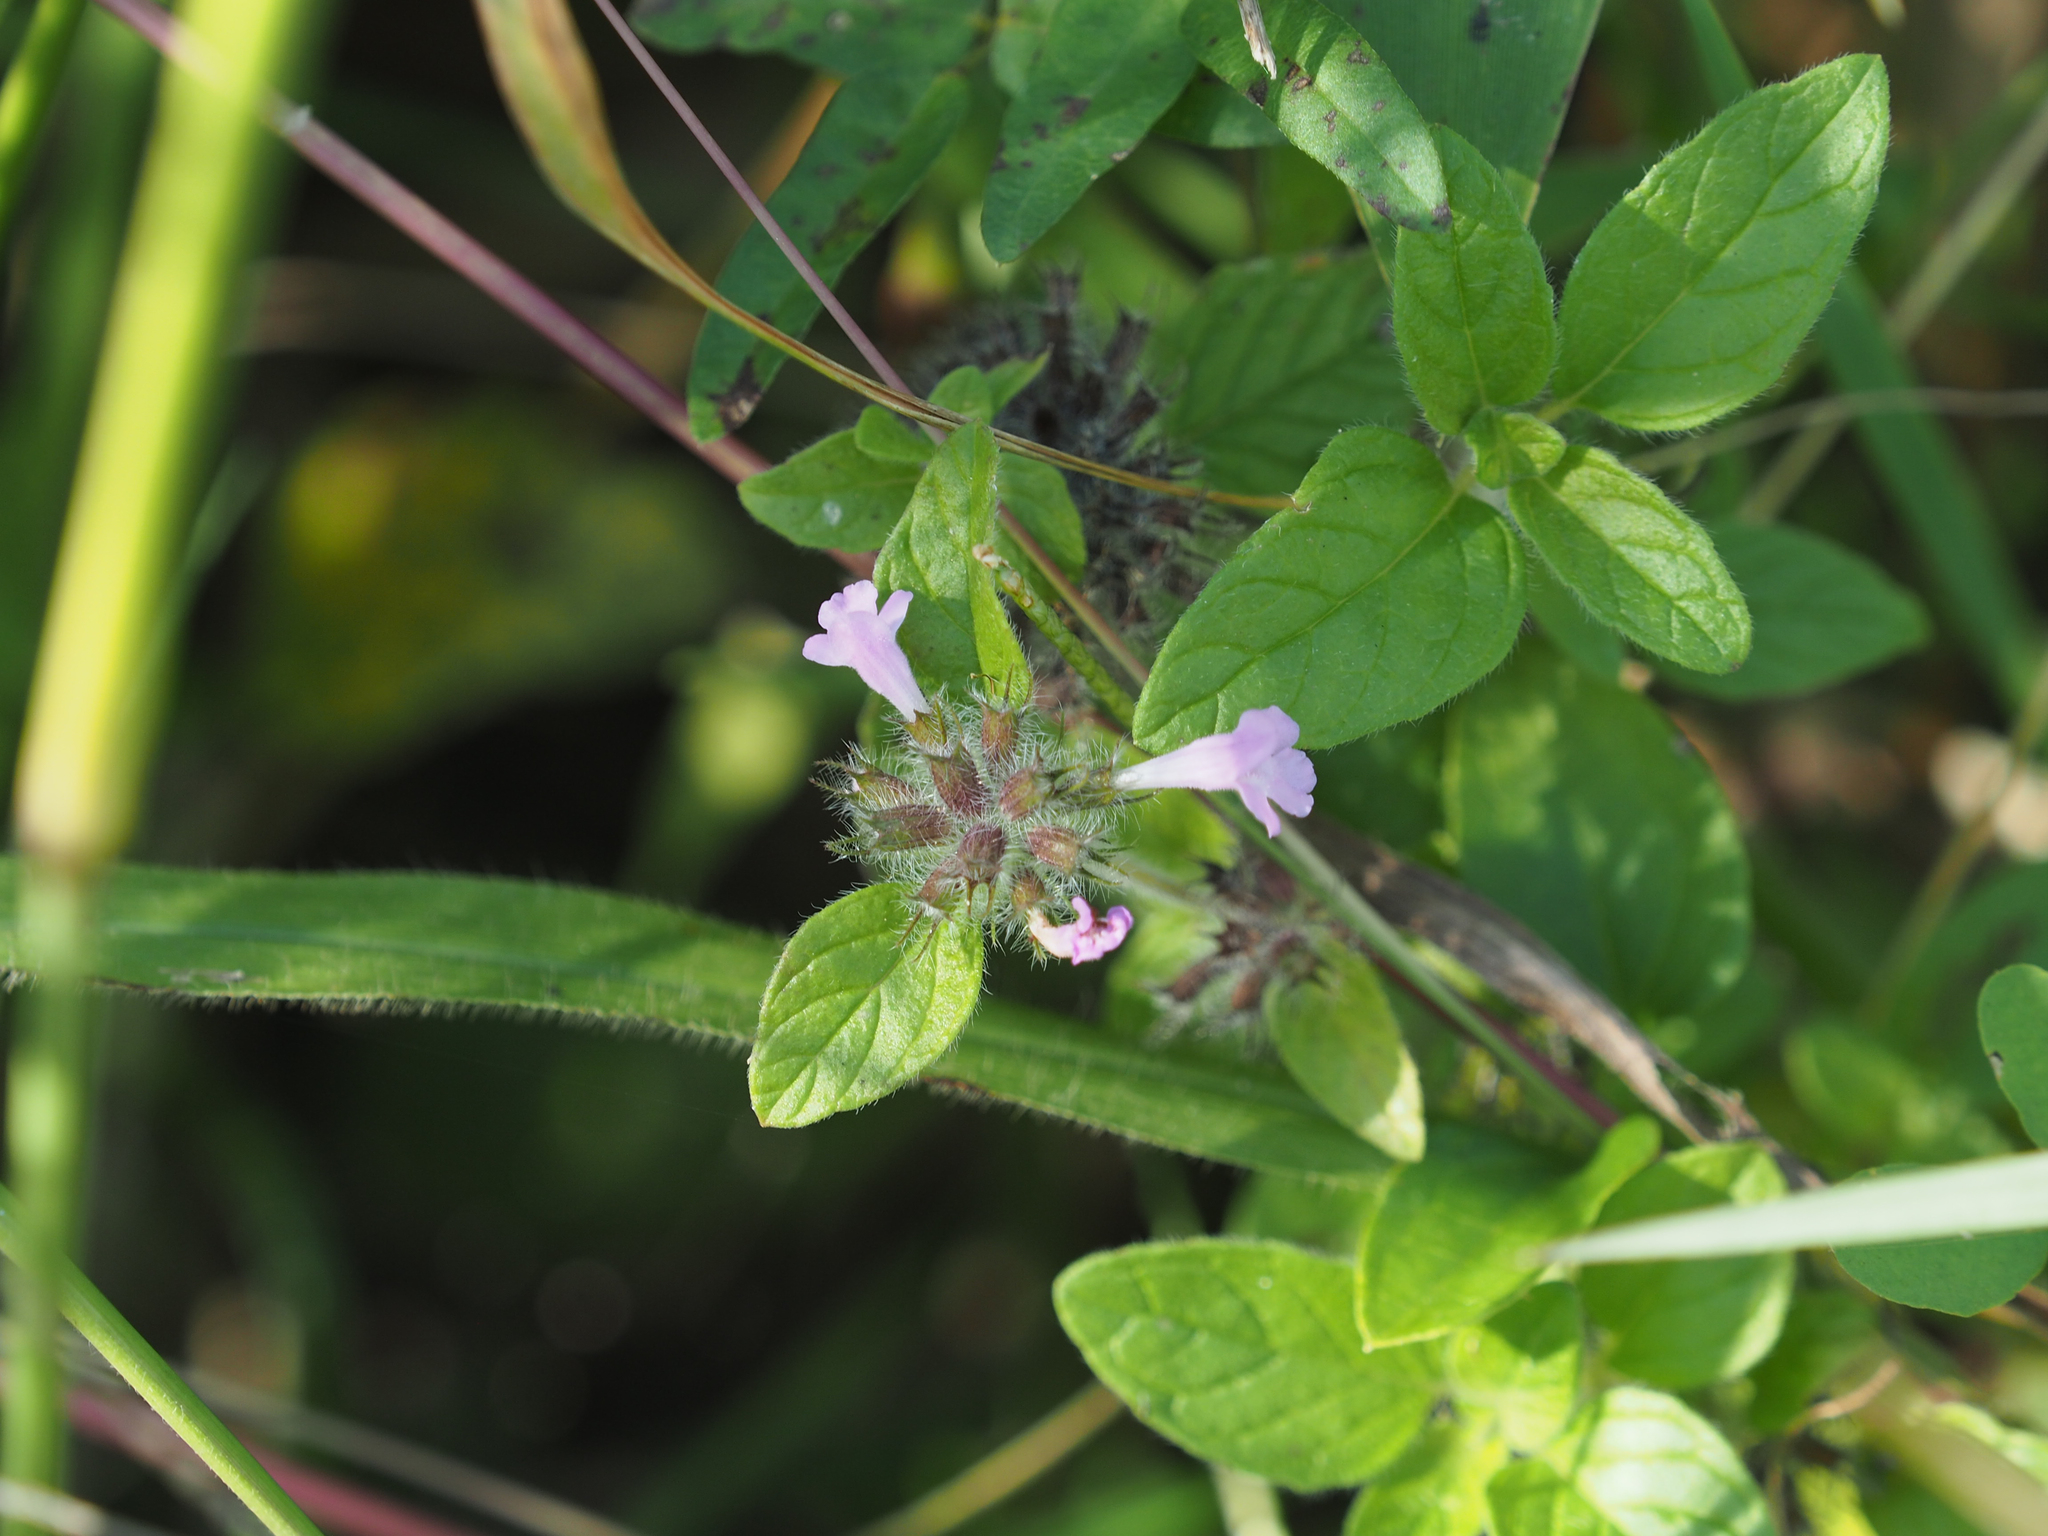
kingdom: Plantae
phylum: Tracheophyta
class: Magnoliopsida
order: Lamiales
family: Lamiaceae
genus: Clinopodium
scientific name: Clinopodium vulgare
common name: Wild basil
